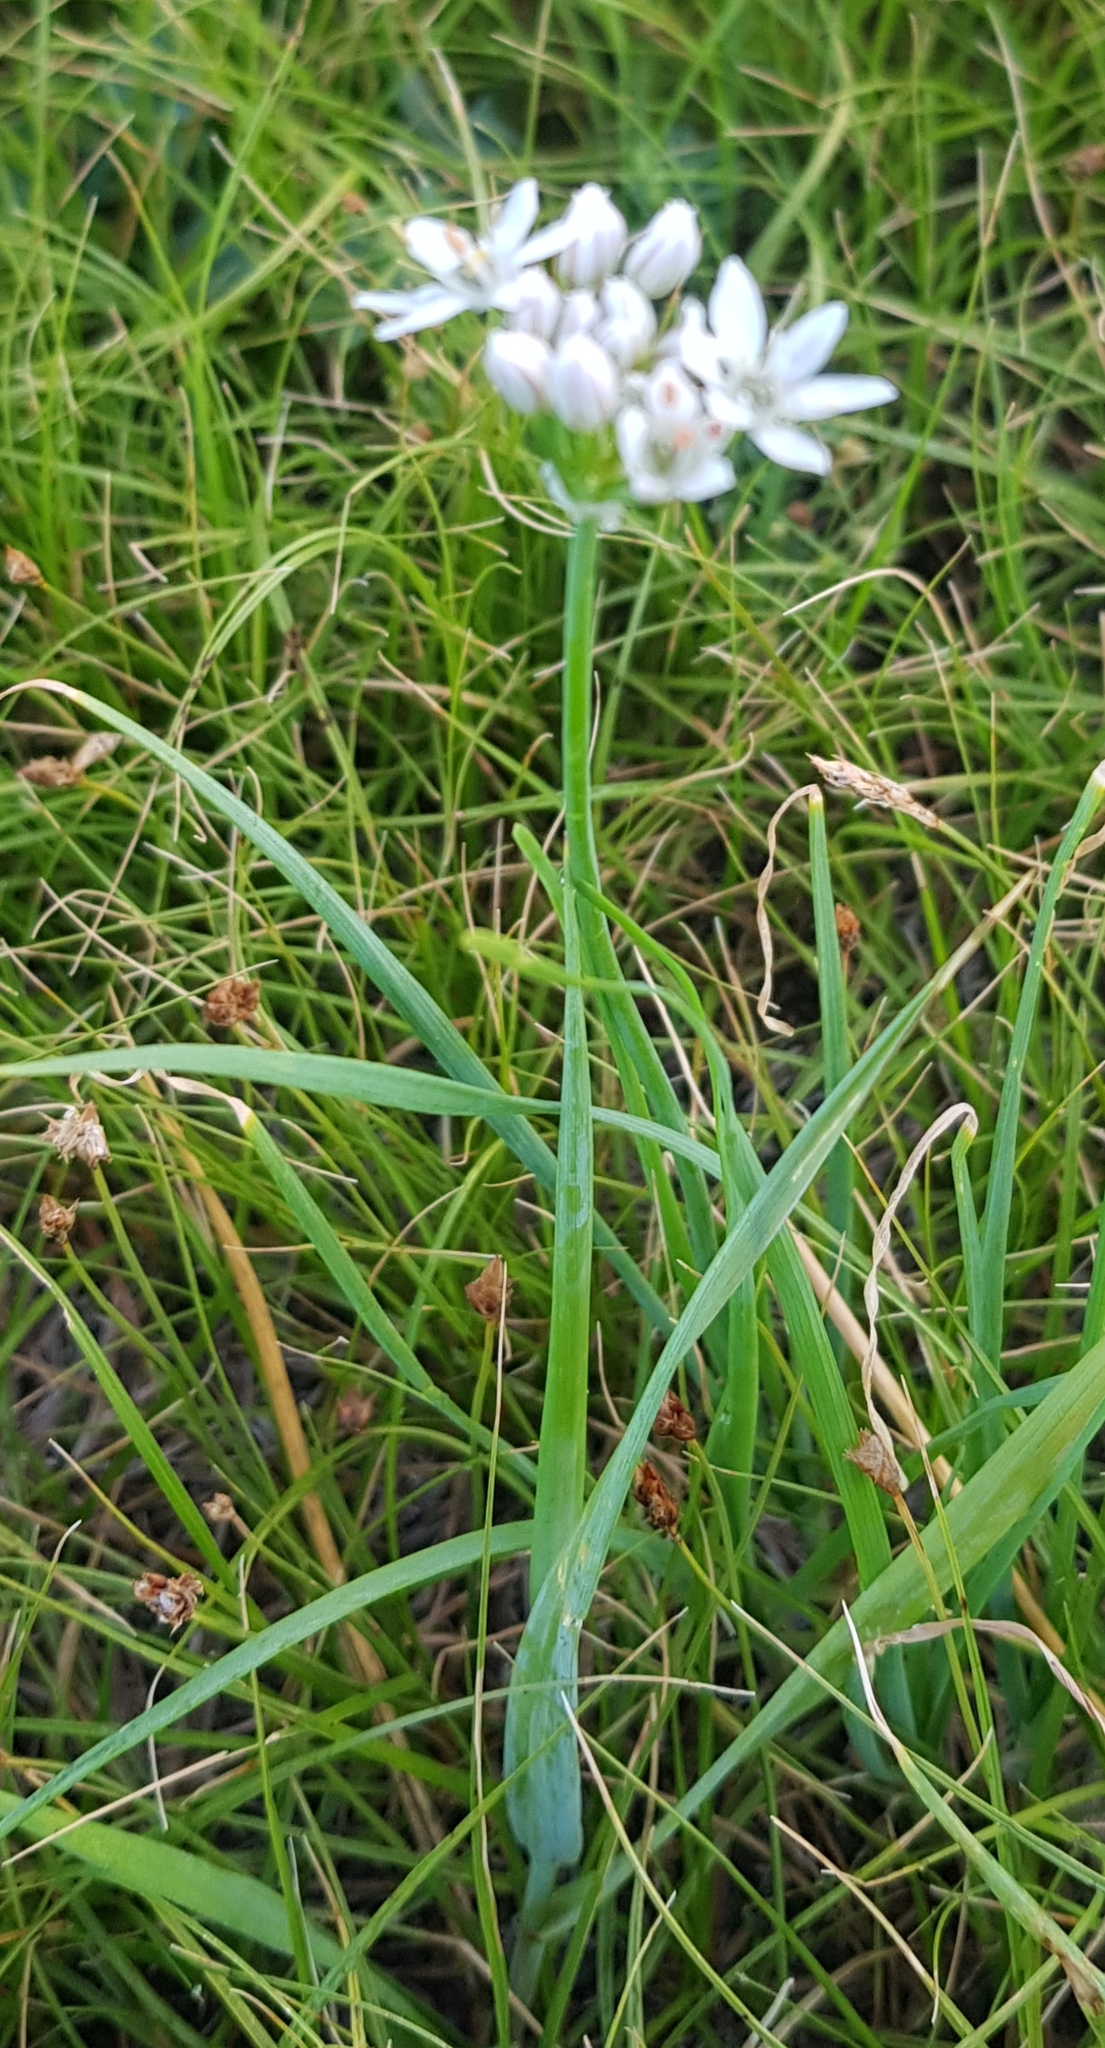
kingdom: Plantae
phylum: Tracheophyta
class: Liliopsida
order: Asparagales
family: Amaryllidaceae
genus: Allium
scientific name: Allium ramosum
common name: Fragrant garlic
